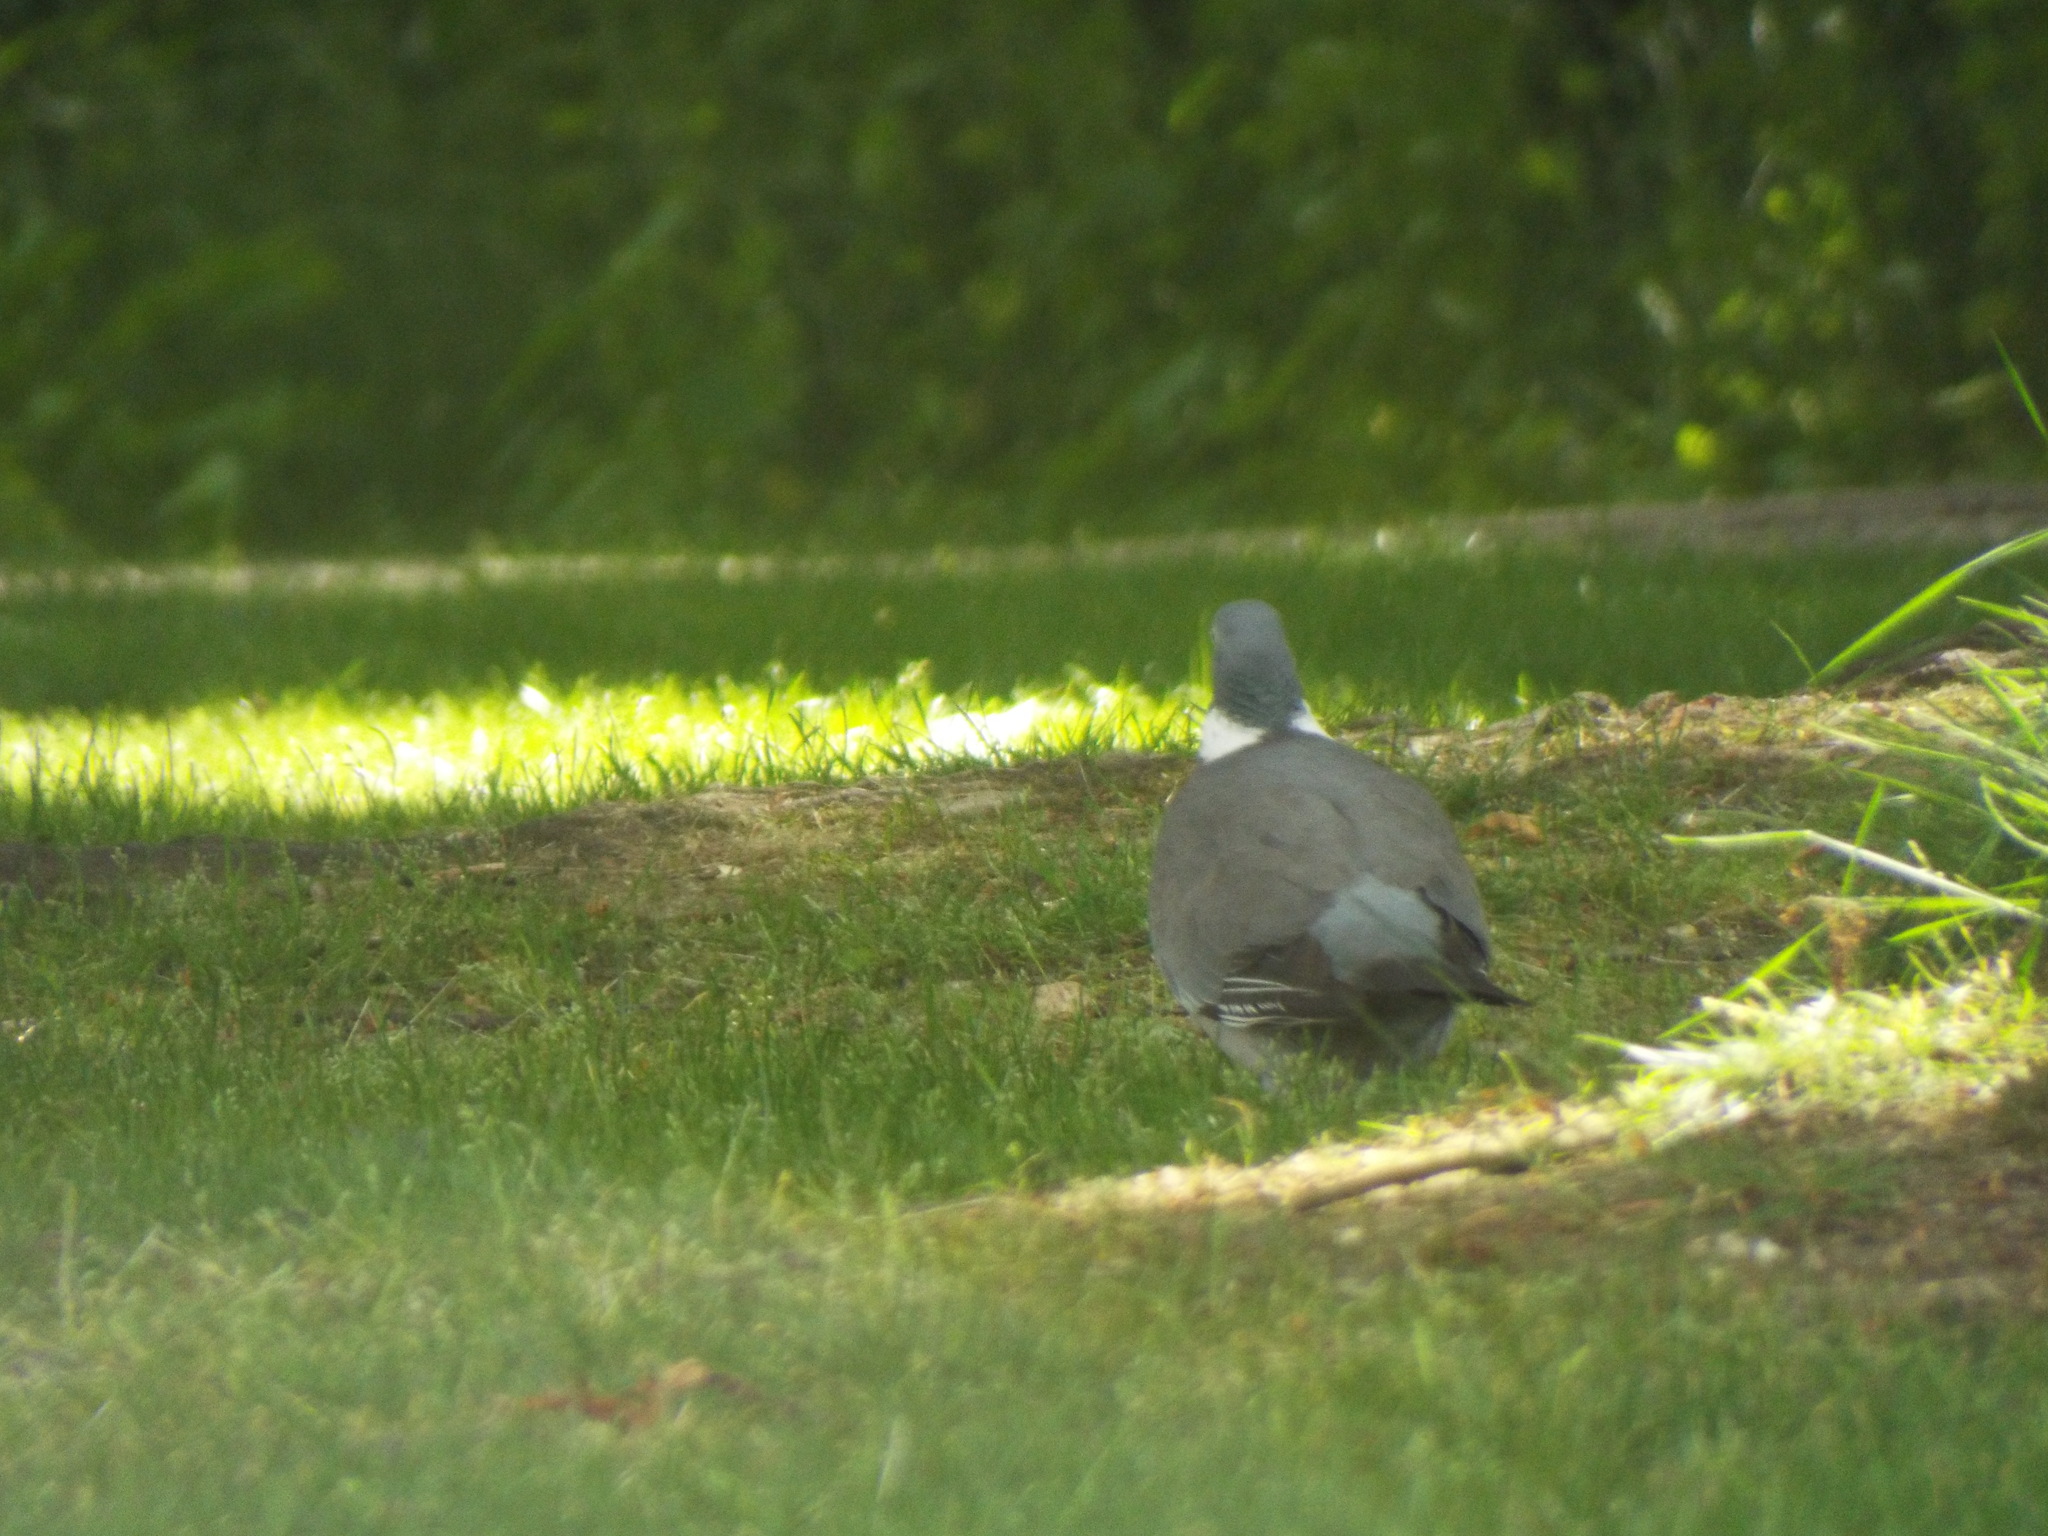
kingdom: Animalia
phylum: Chordata
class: Aves
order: Columbiformes
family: Columbidae
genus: Columba
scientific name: Columba palumbus
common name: Common wood pigeon
